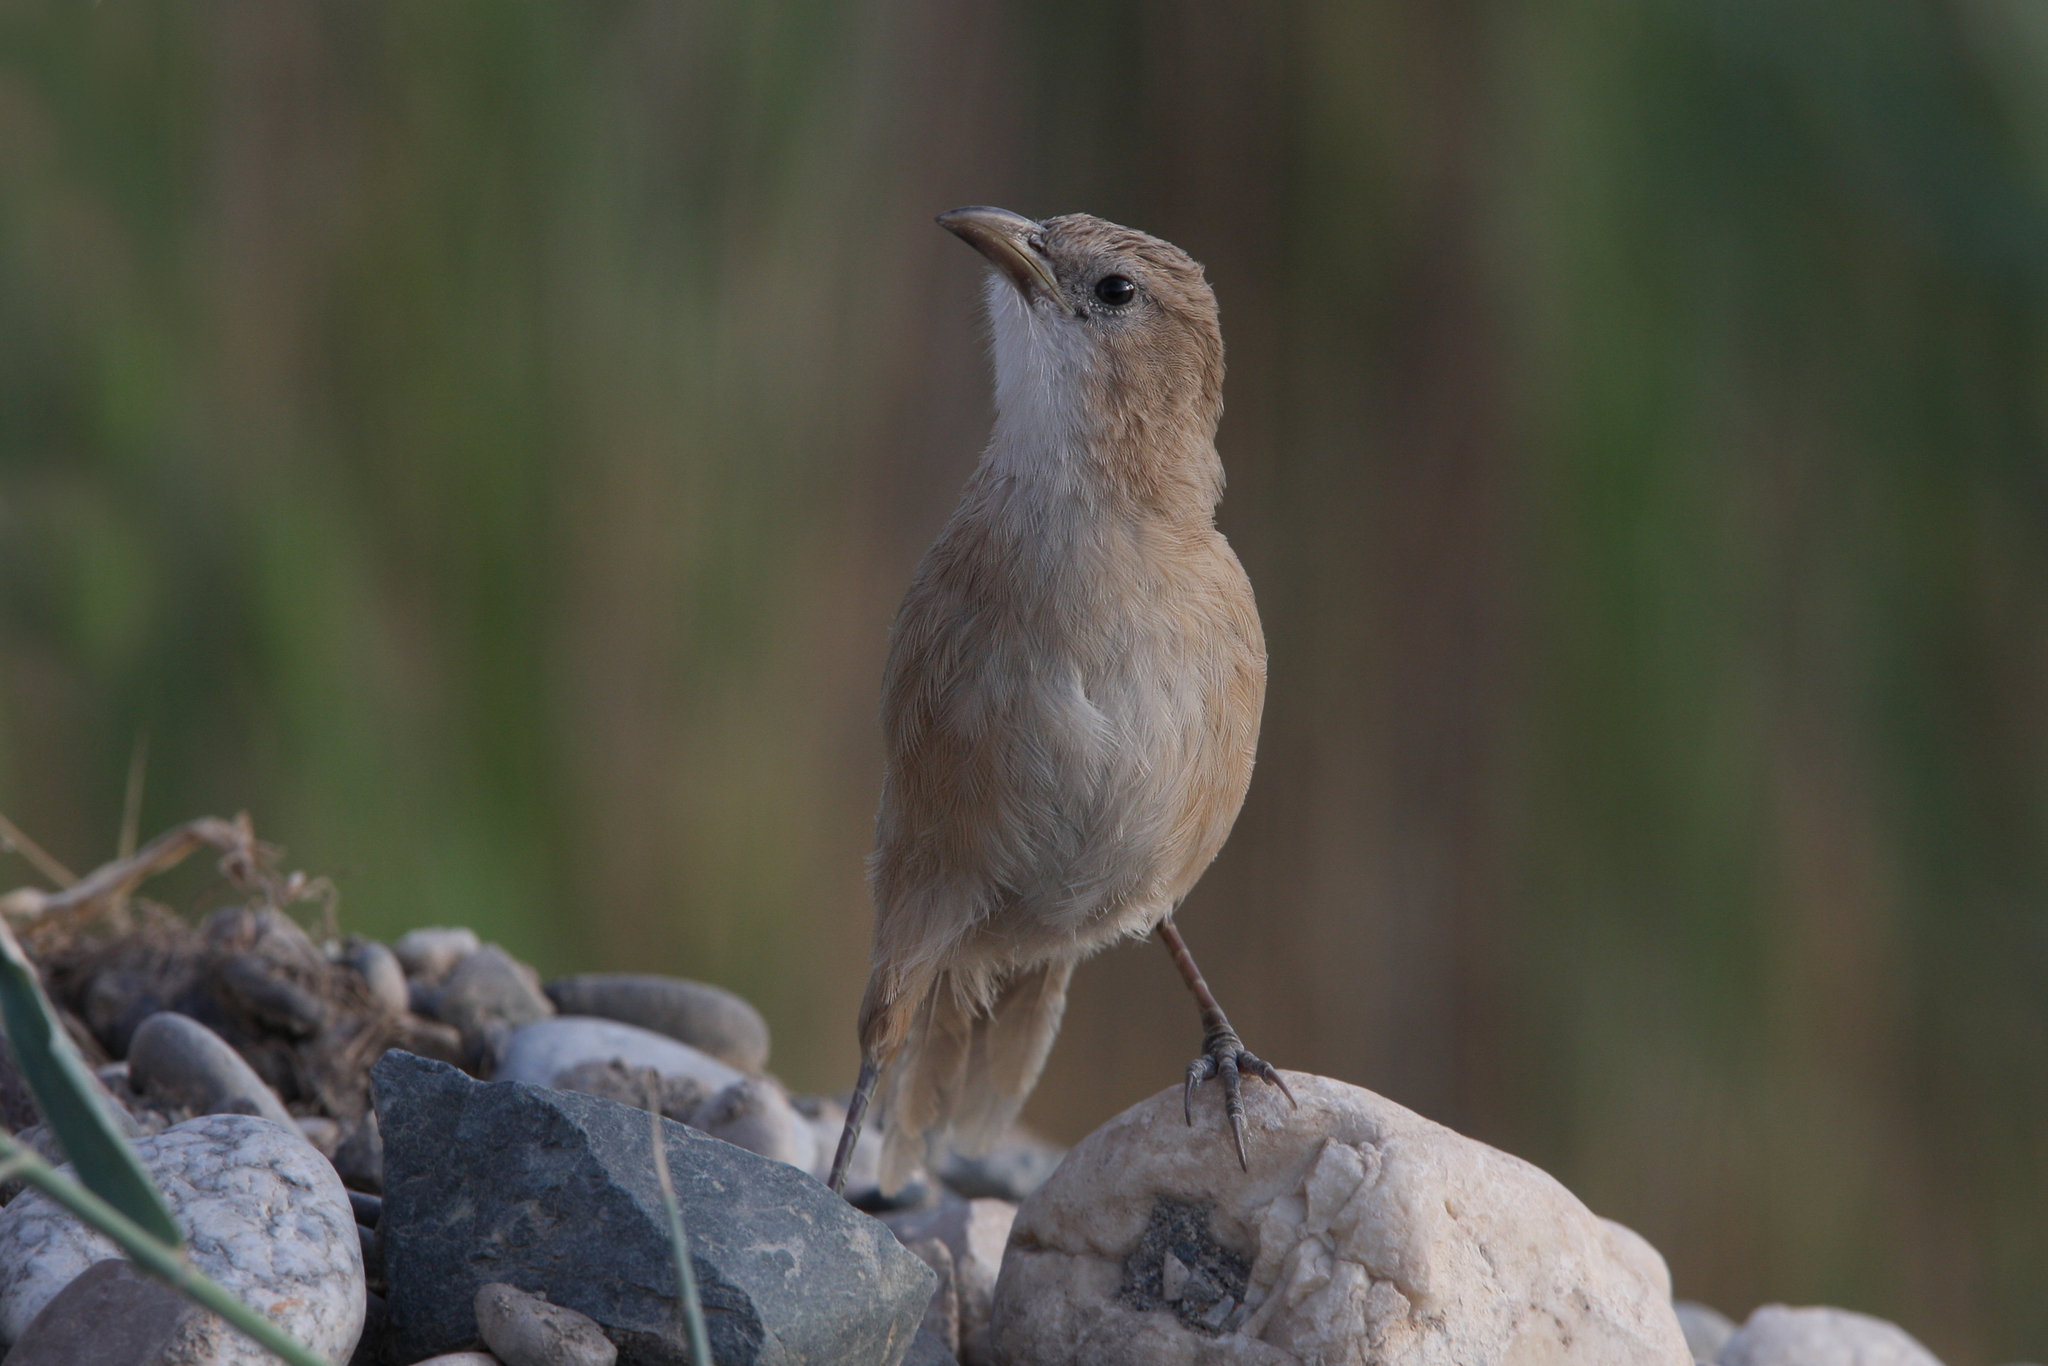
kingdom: Animalia
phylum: Chordata
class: Aves
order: Passeriformes
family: Leiothrichidae
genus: Turdoides
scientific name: Turdoides altirostris
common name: Iraq babbler
